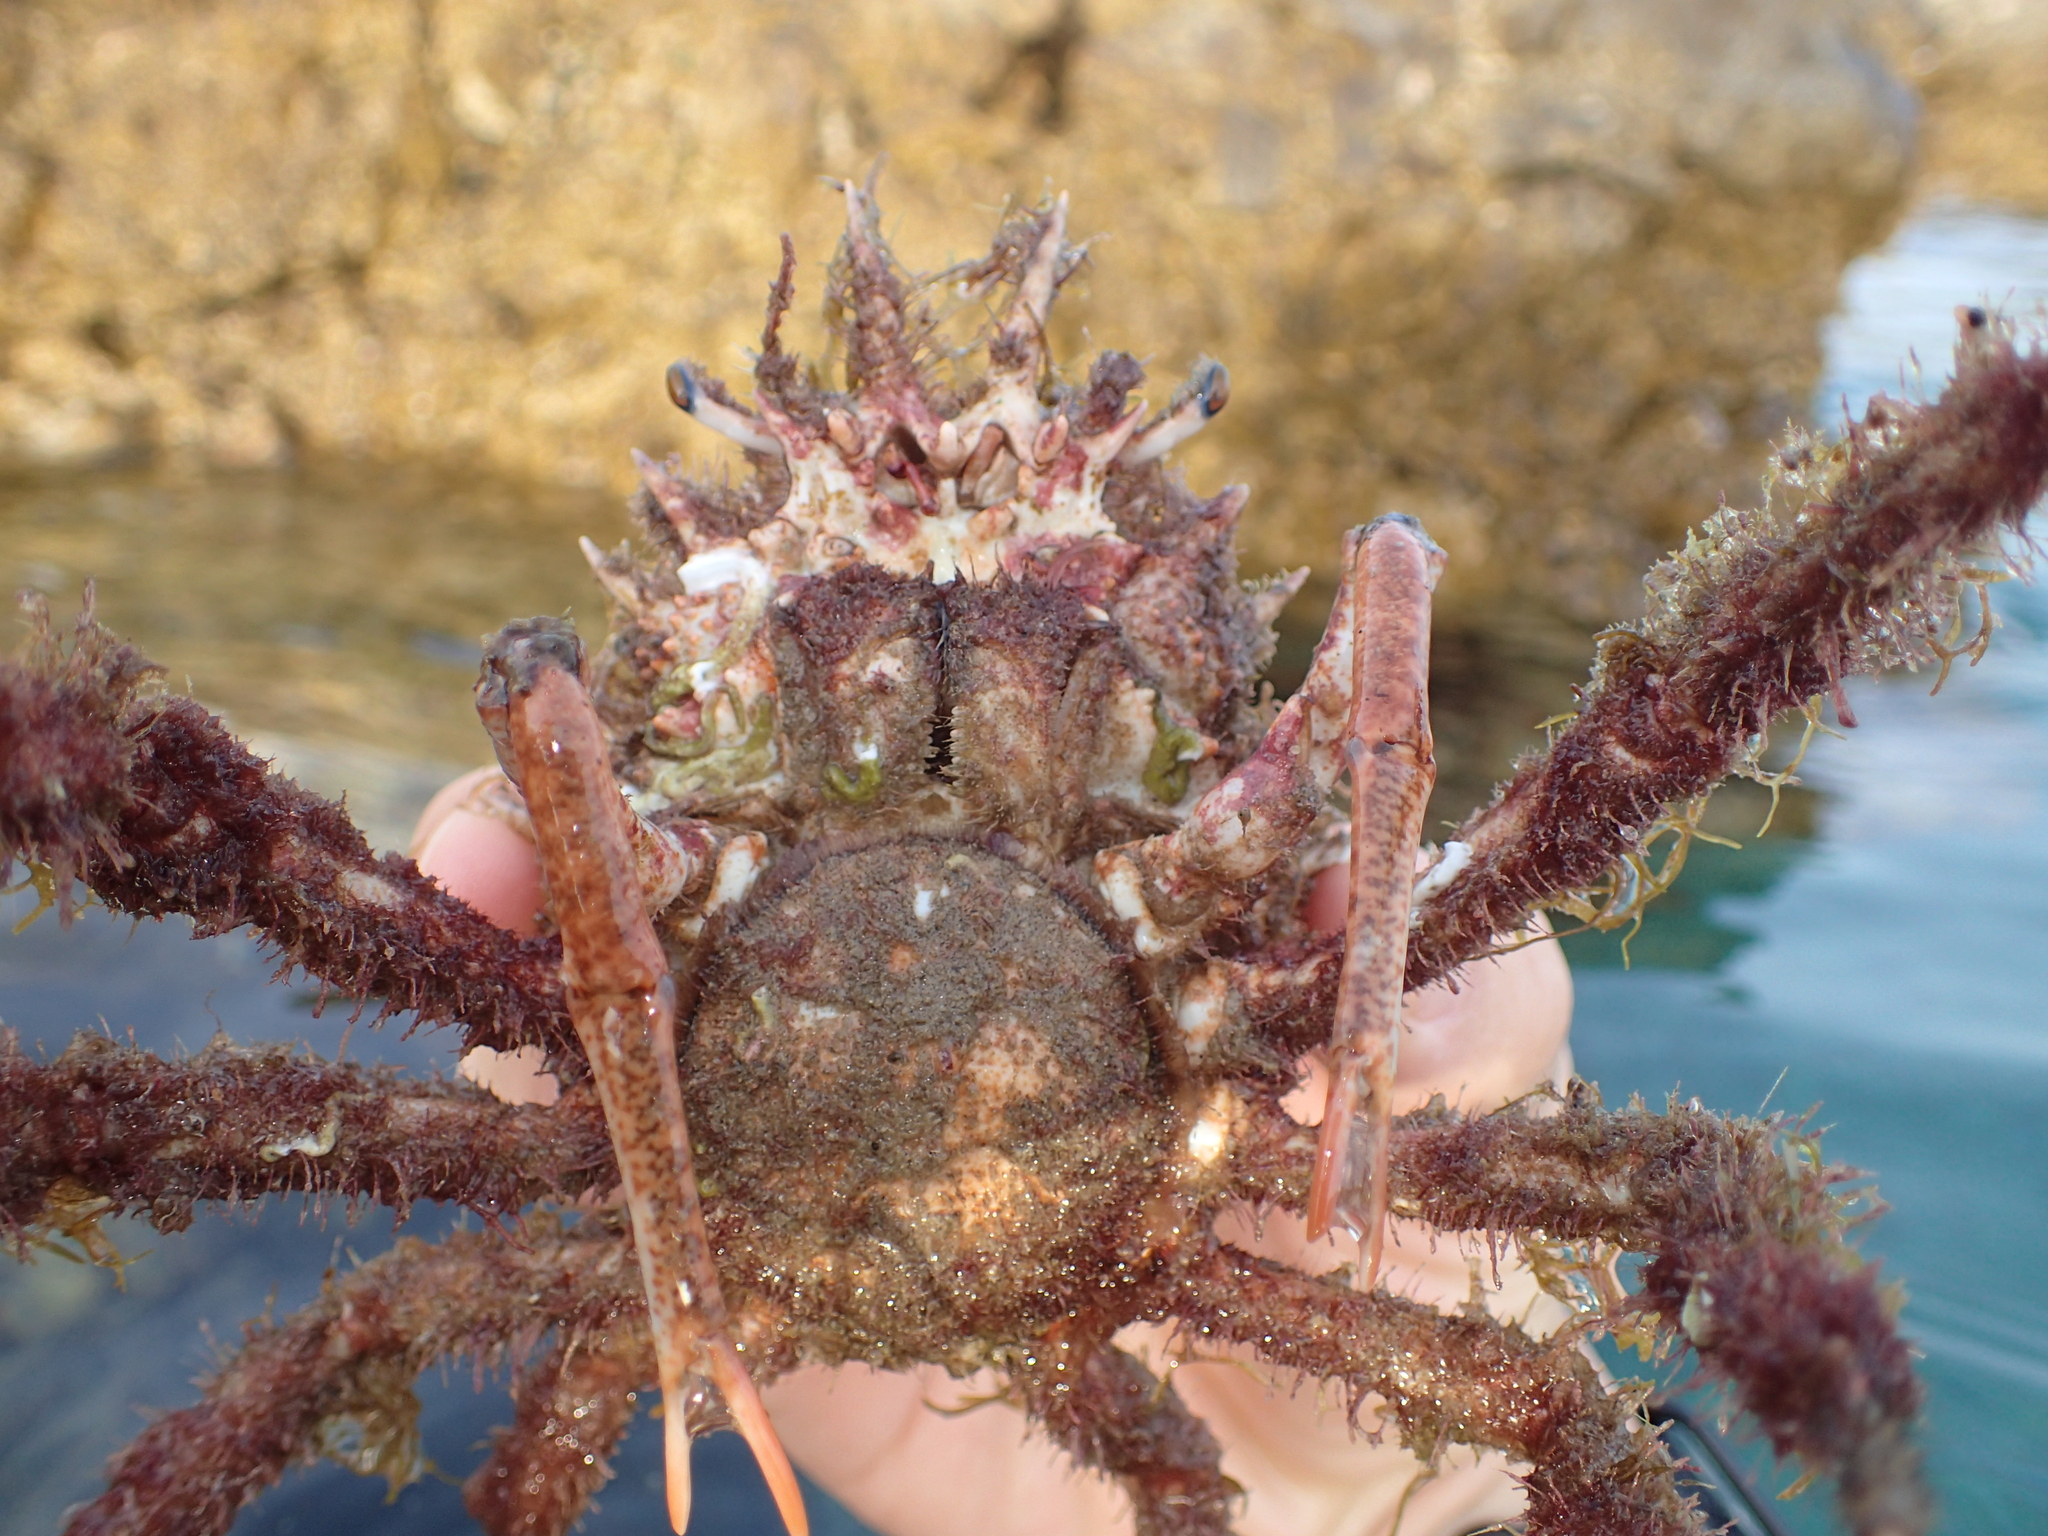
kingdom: Animalia
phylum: Arthropoda
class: Malacostraca
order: Decapoda
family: Majidae
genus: Maja
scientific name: Maja crispata
